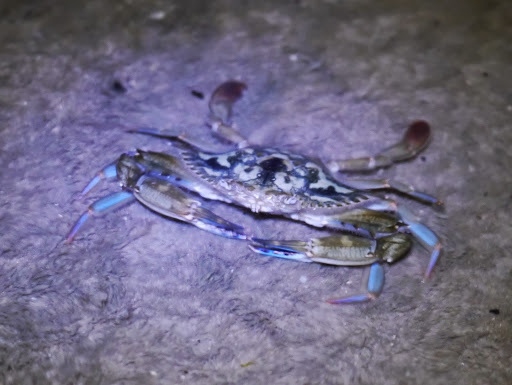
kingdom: Animalia
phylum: Arthropoda
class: Malacostraca
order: Decapoda
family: Portunidae
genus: Callinectes
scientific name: Callinectes marginatus
